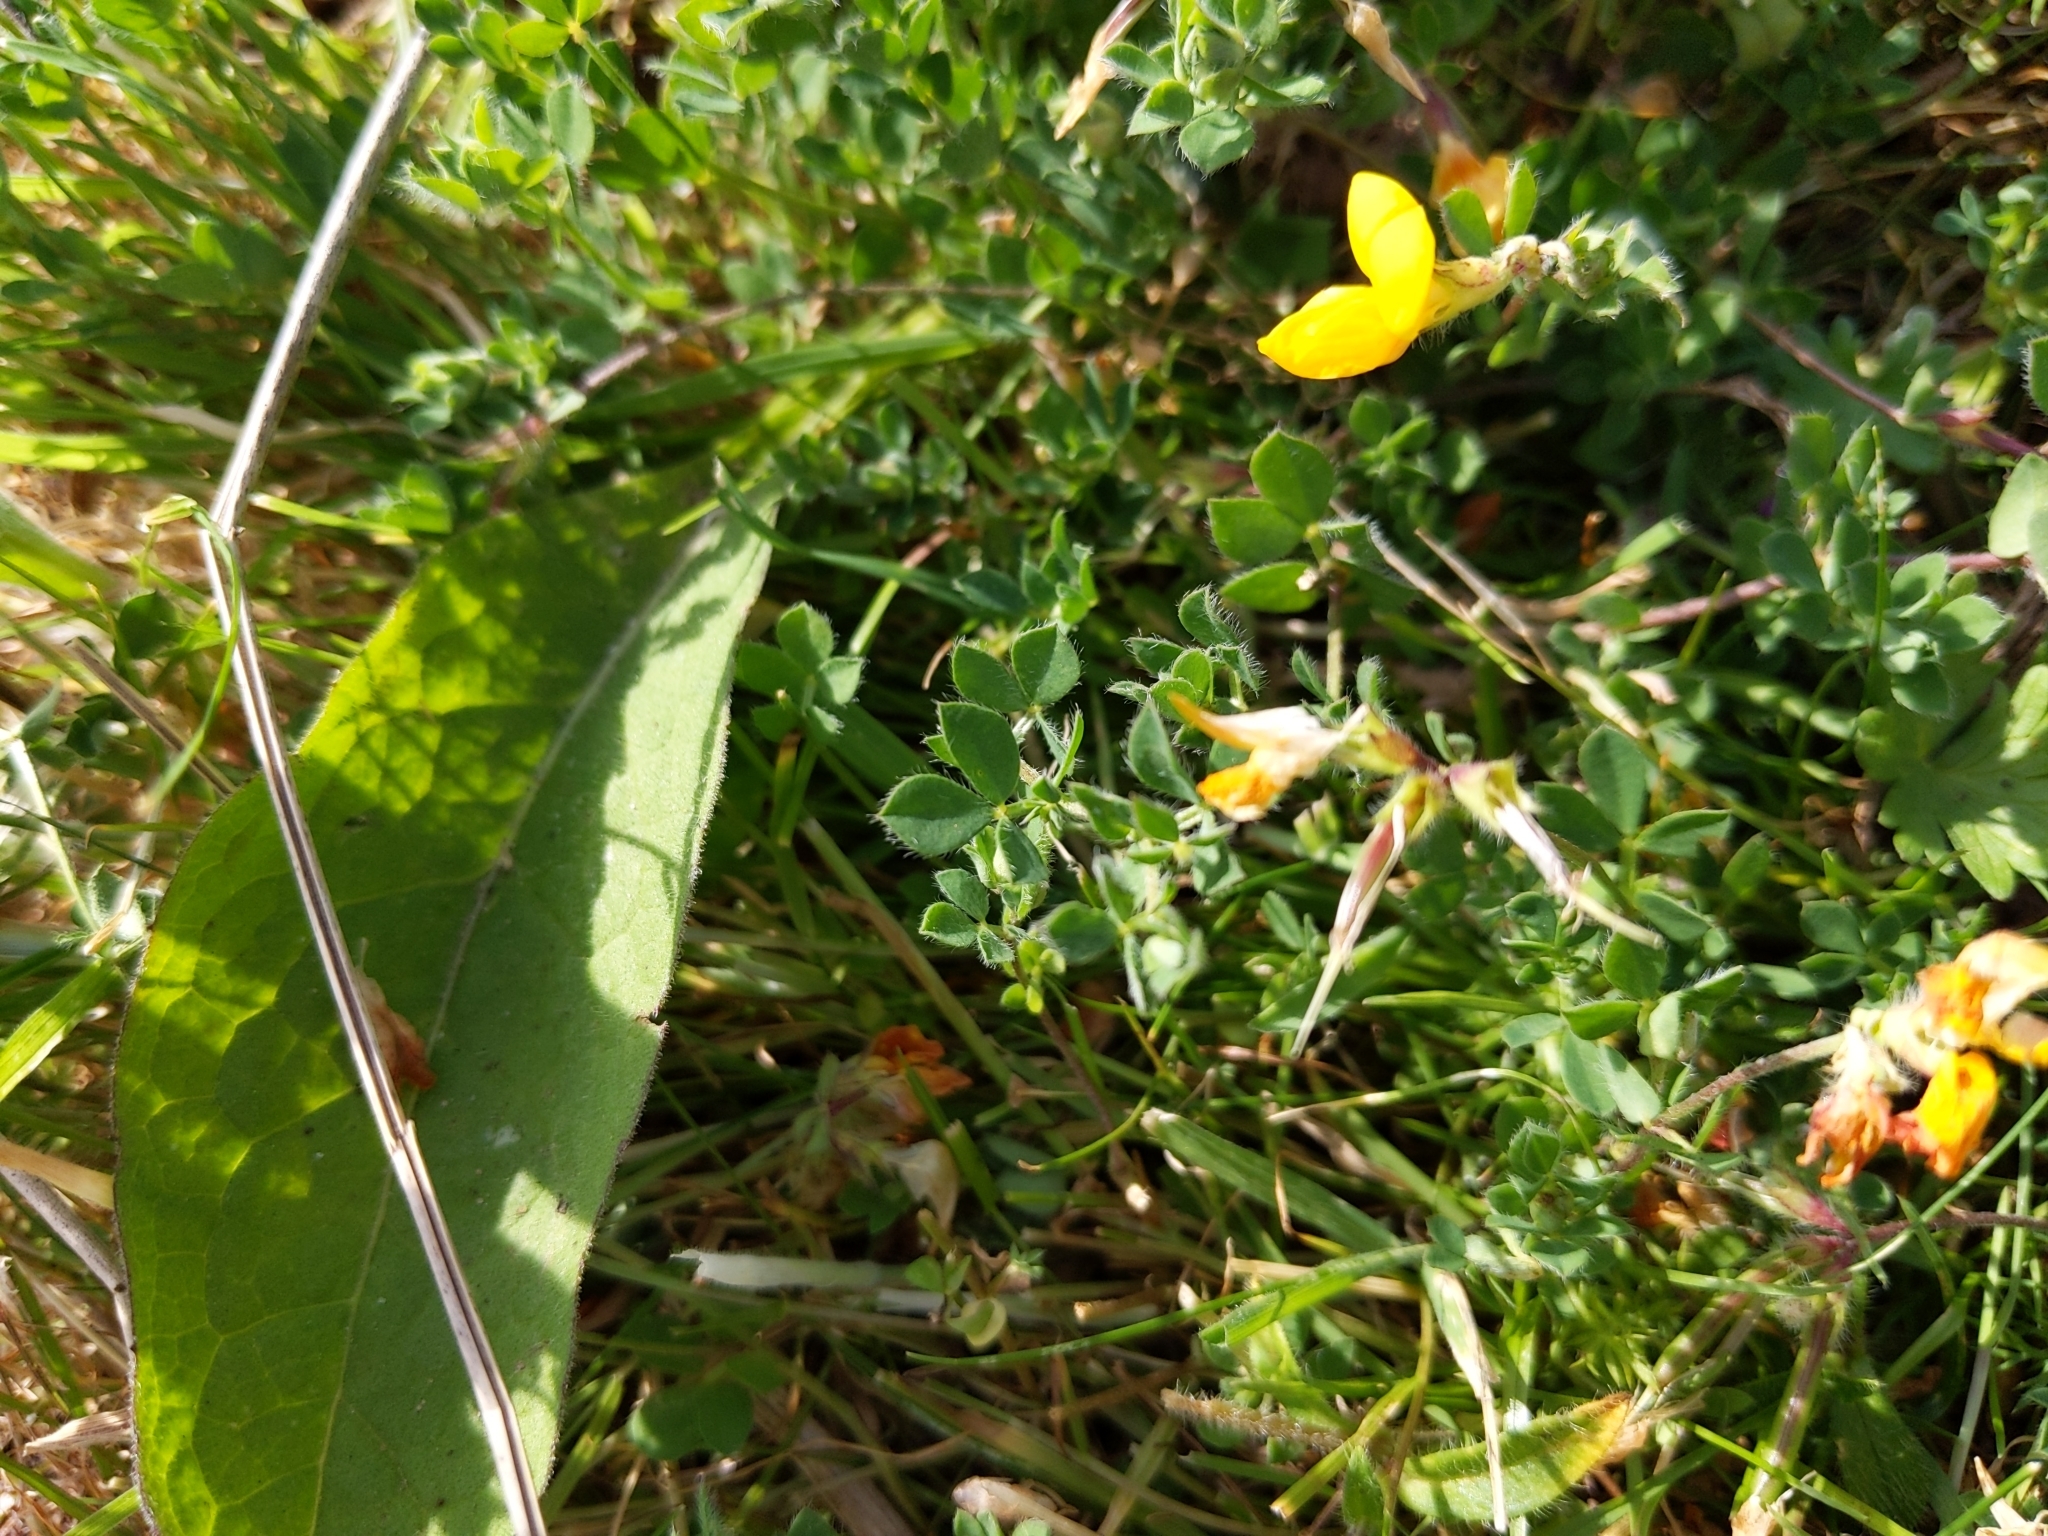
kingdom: Plantae
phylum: Tracheophyta
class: Magnoliopsida
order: Fabales
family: Fabaceae
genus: Lotus
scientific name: Lotus corniculatus
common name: Common bird's-foot-trefoil
